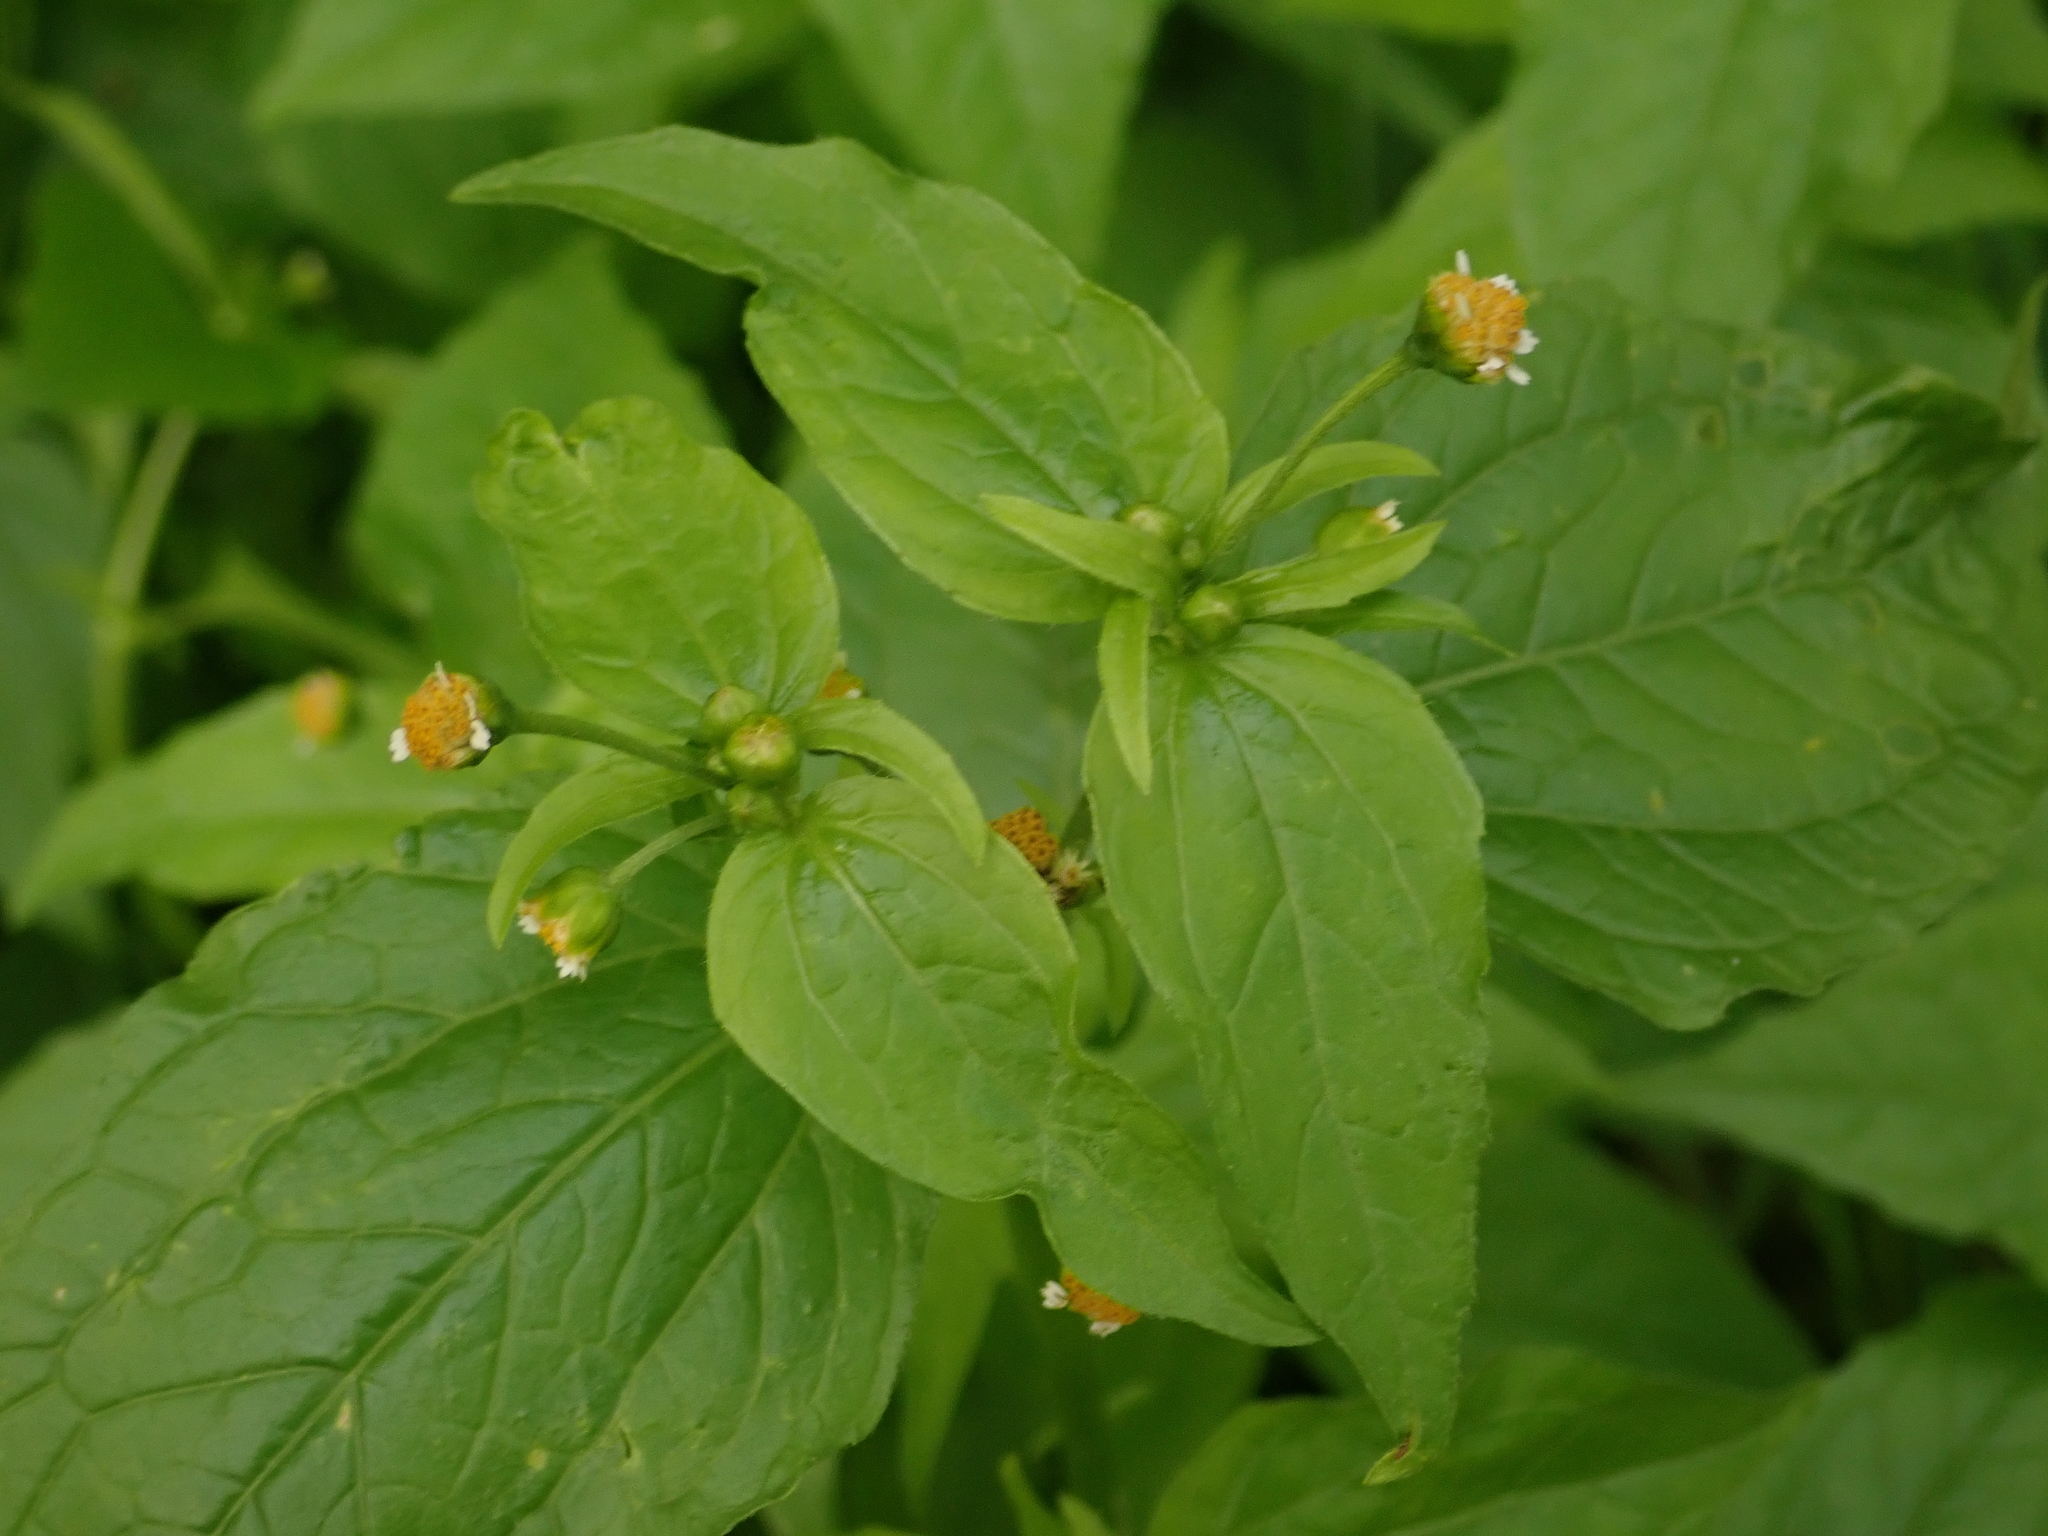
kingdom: Plantae
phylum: Tracheophyta
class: Magnoliopsida
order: Asterales
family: Asteraceae
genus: Galinsoga
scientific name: Galinsoga parviflora
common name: Gallant soldier
